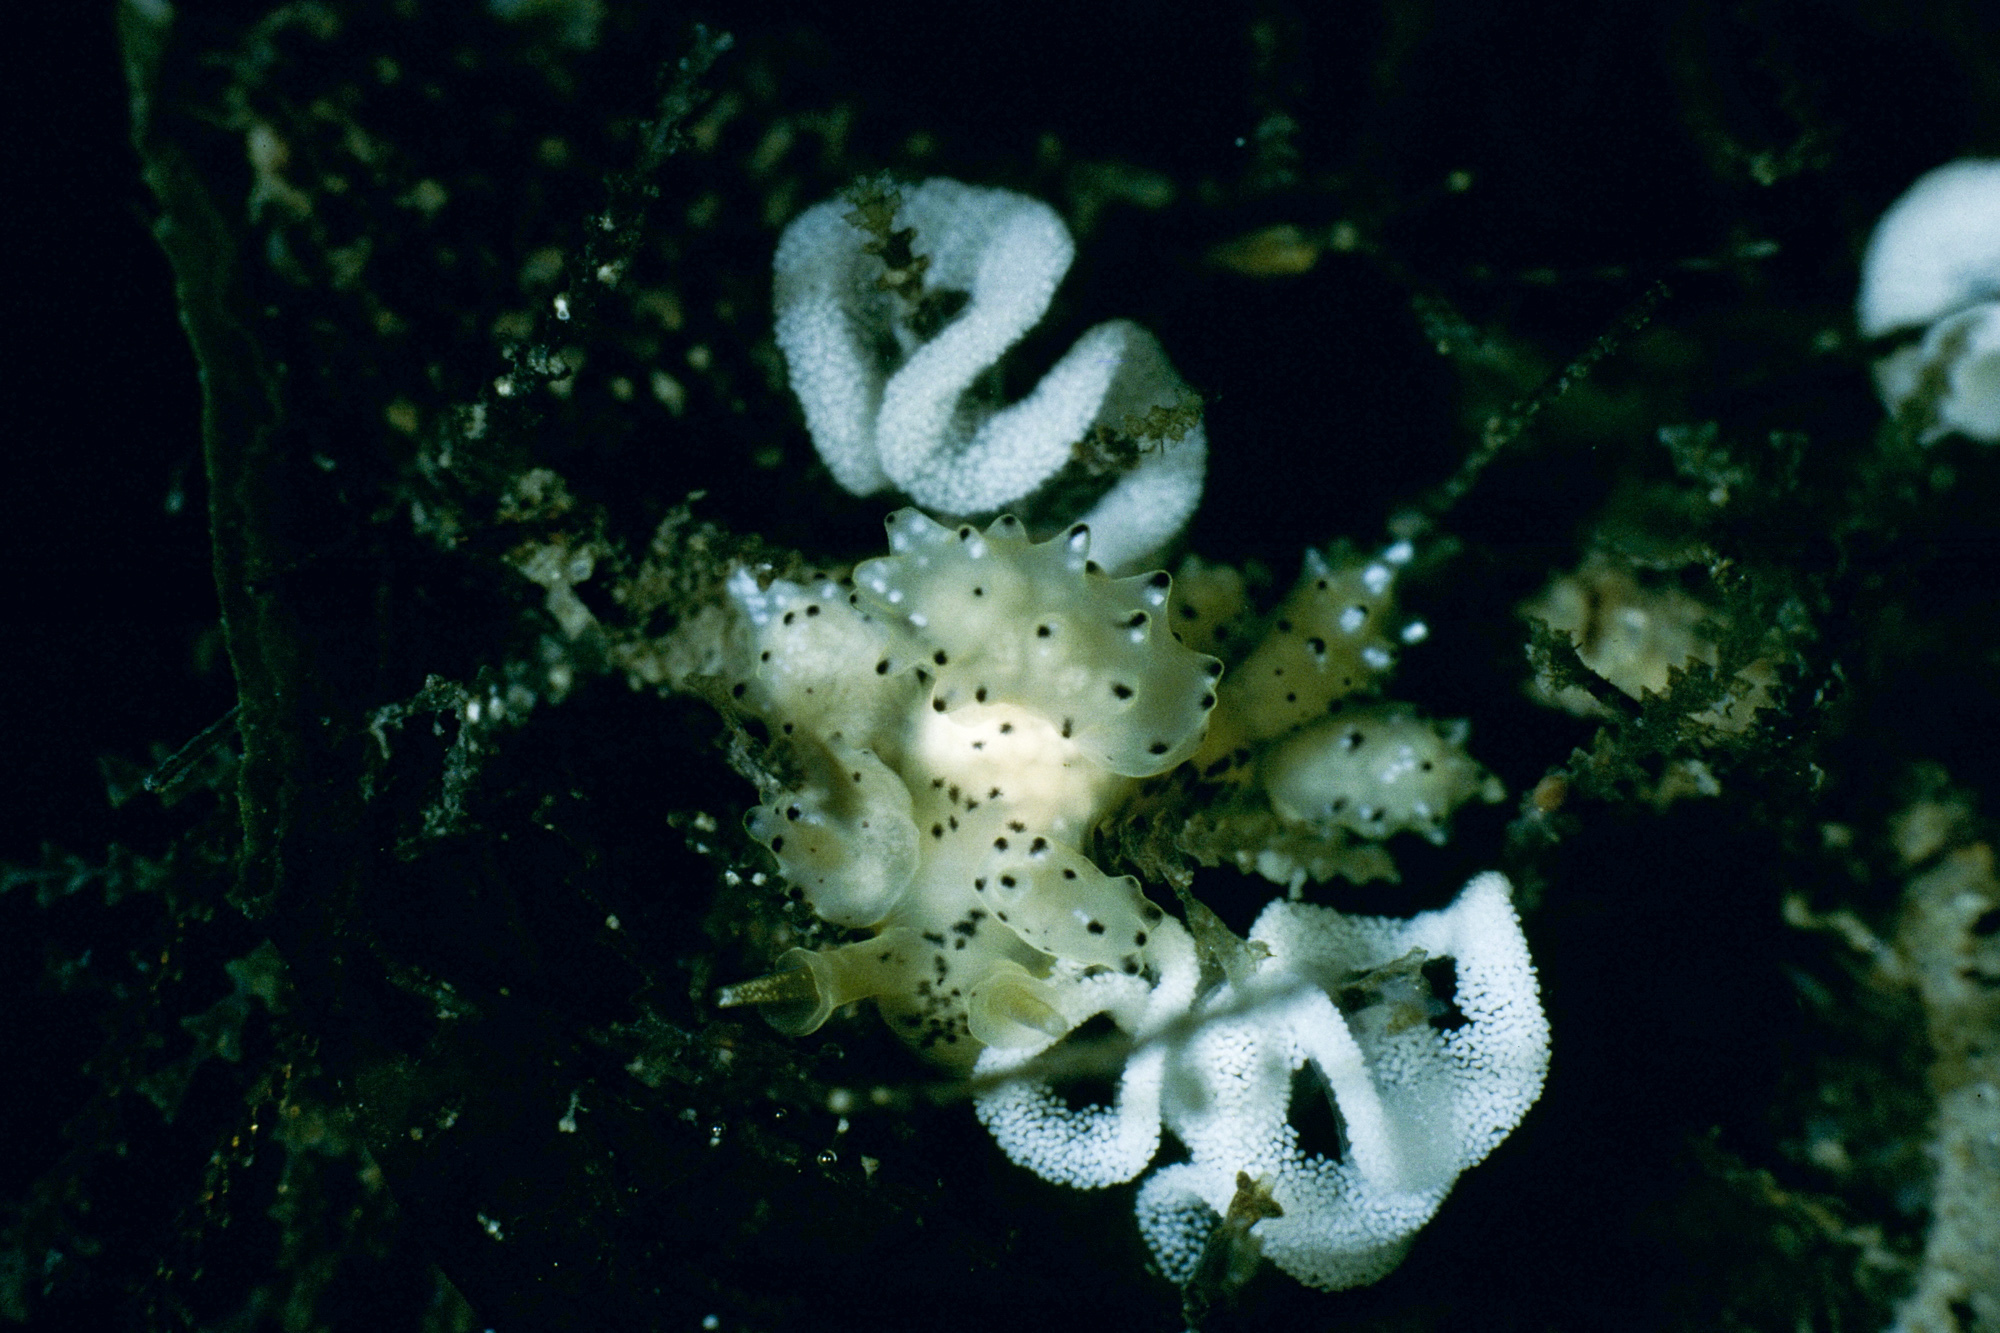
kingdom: Animalia
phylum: Mollusca
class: Gastropoda
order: Nudibranchia
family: Dotidae
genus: Doto
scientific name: Doto onusta
